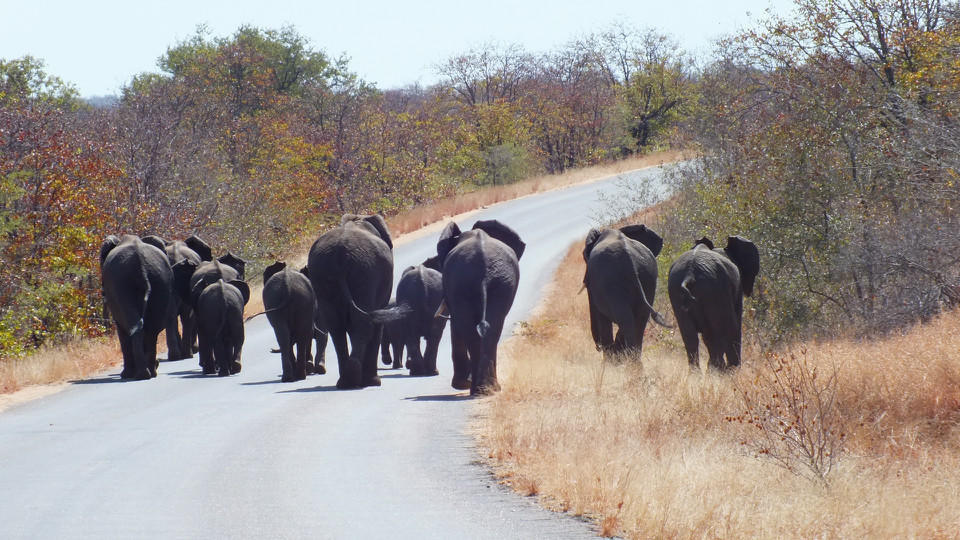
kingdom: Animalia
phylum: Chordata
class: Mammalia
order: Proboscidea
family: Elephantidae
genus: Loxodonta
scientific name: Loxodonta africana
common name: African elephant
